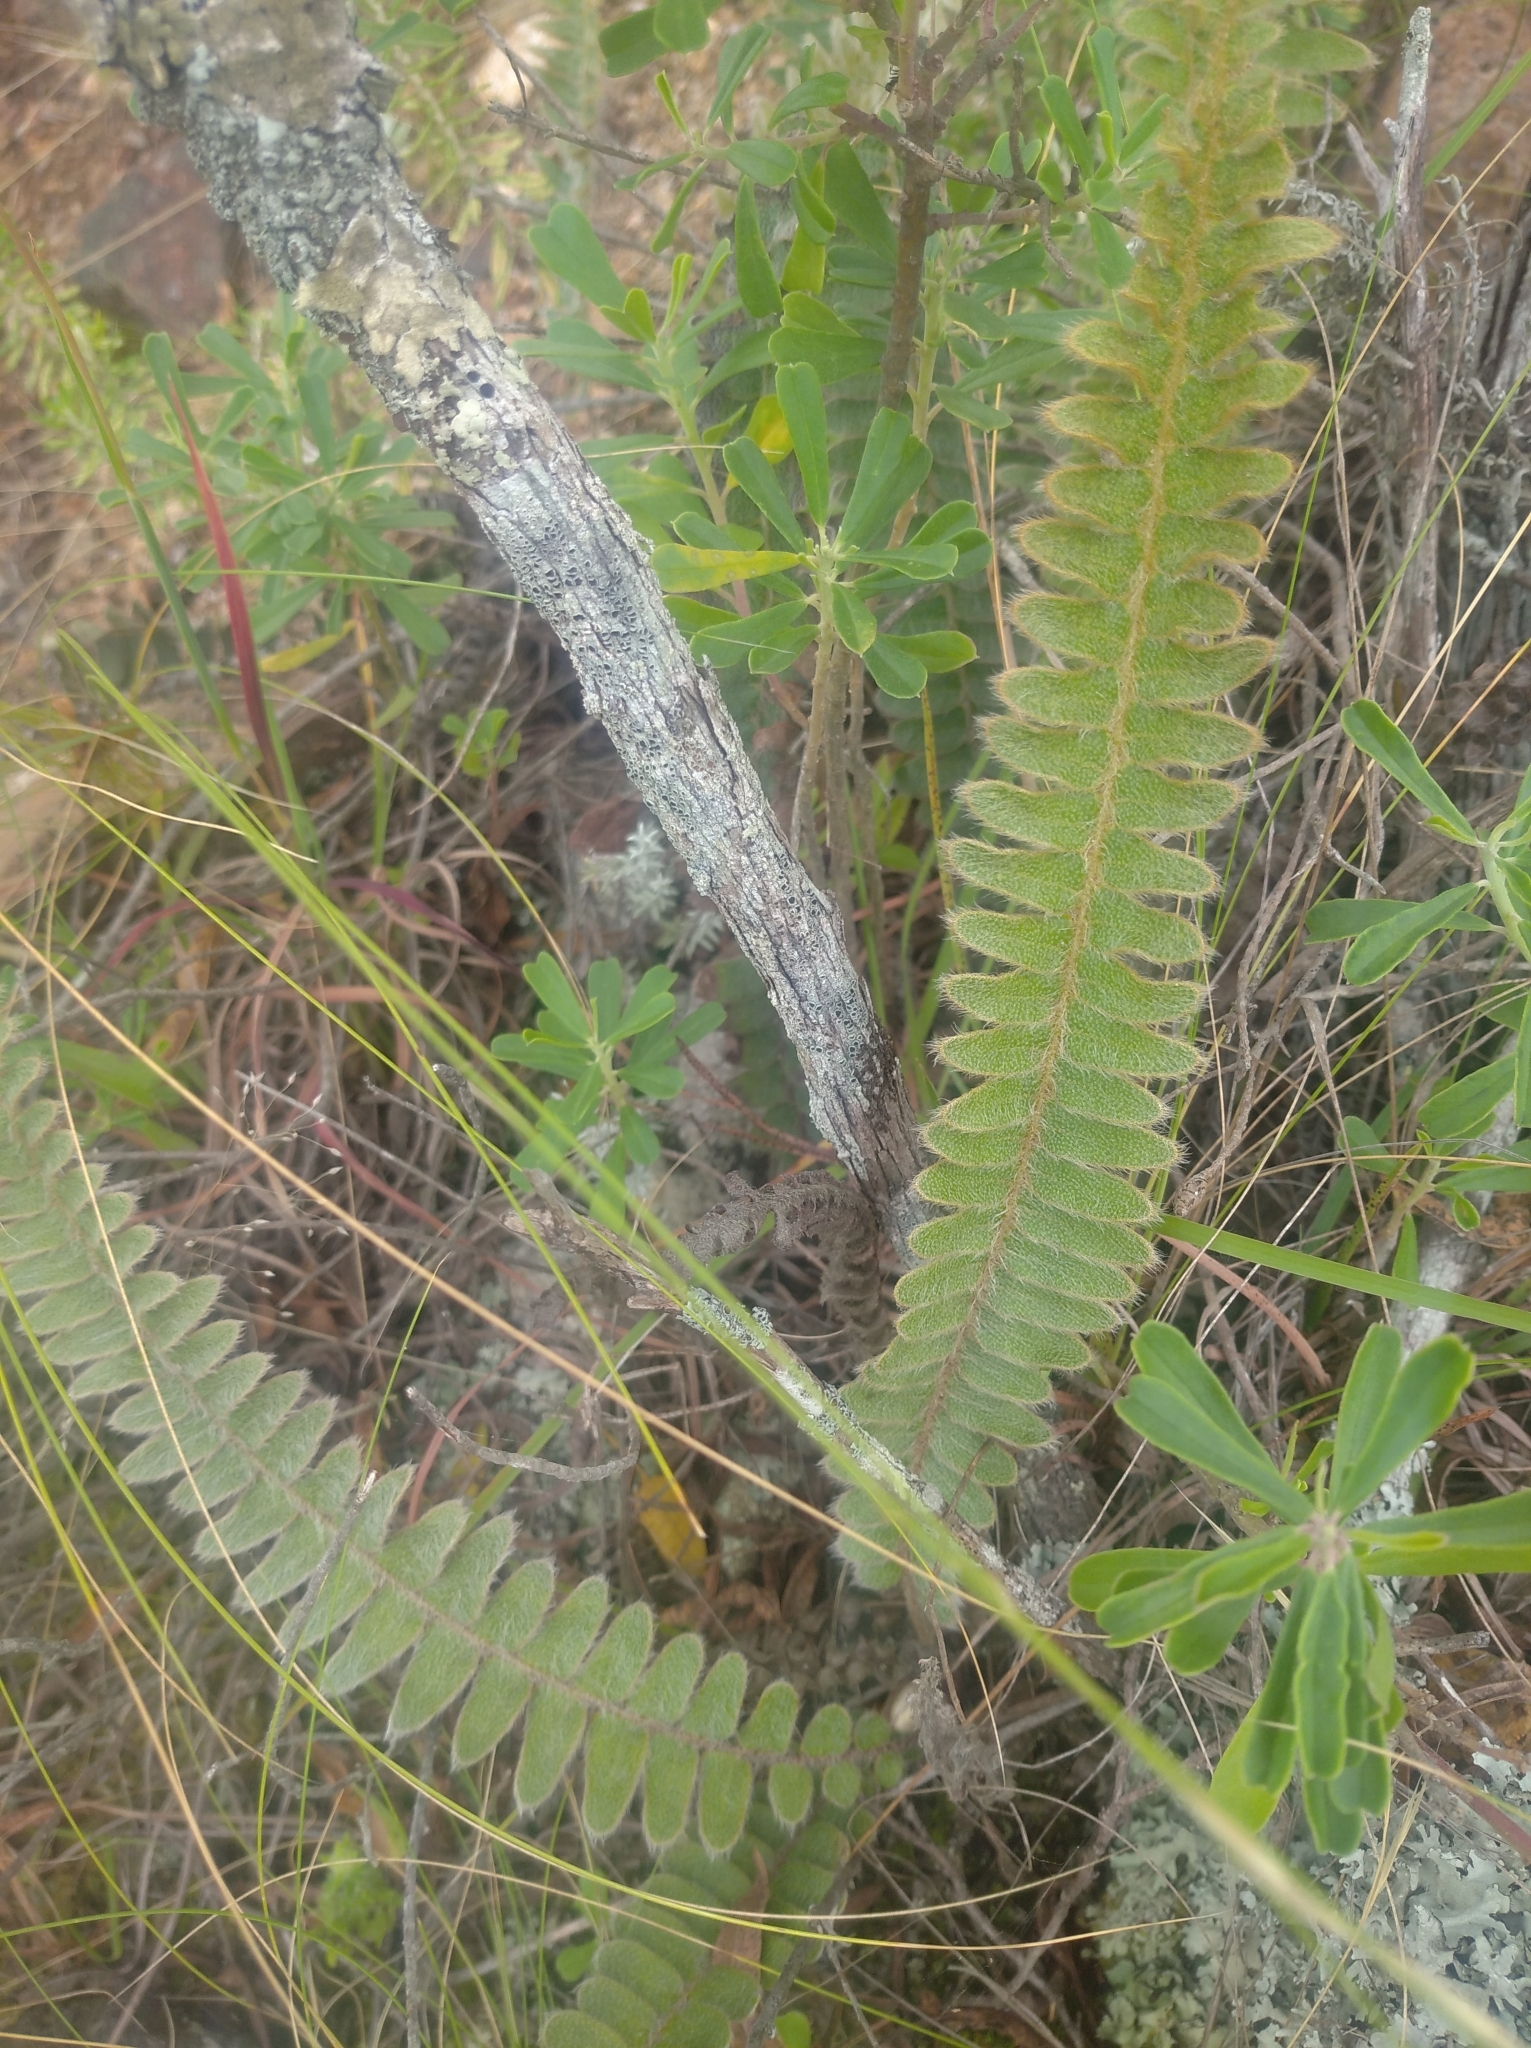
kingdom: Plantae
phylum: Tracheophyta
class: Polypodiopsida
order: Polypodiales
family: Polypodiaceae
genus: Pleopeltis
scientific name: Pleopeltis lepidopteris
